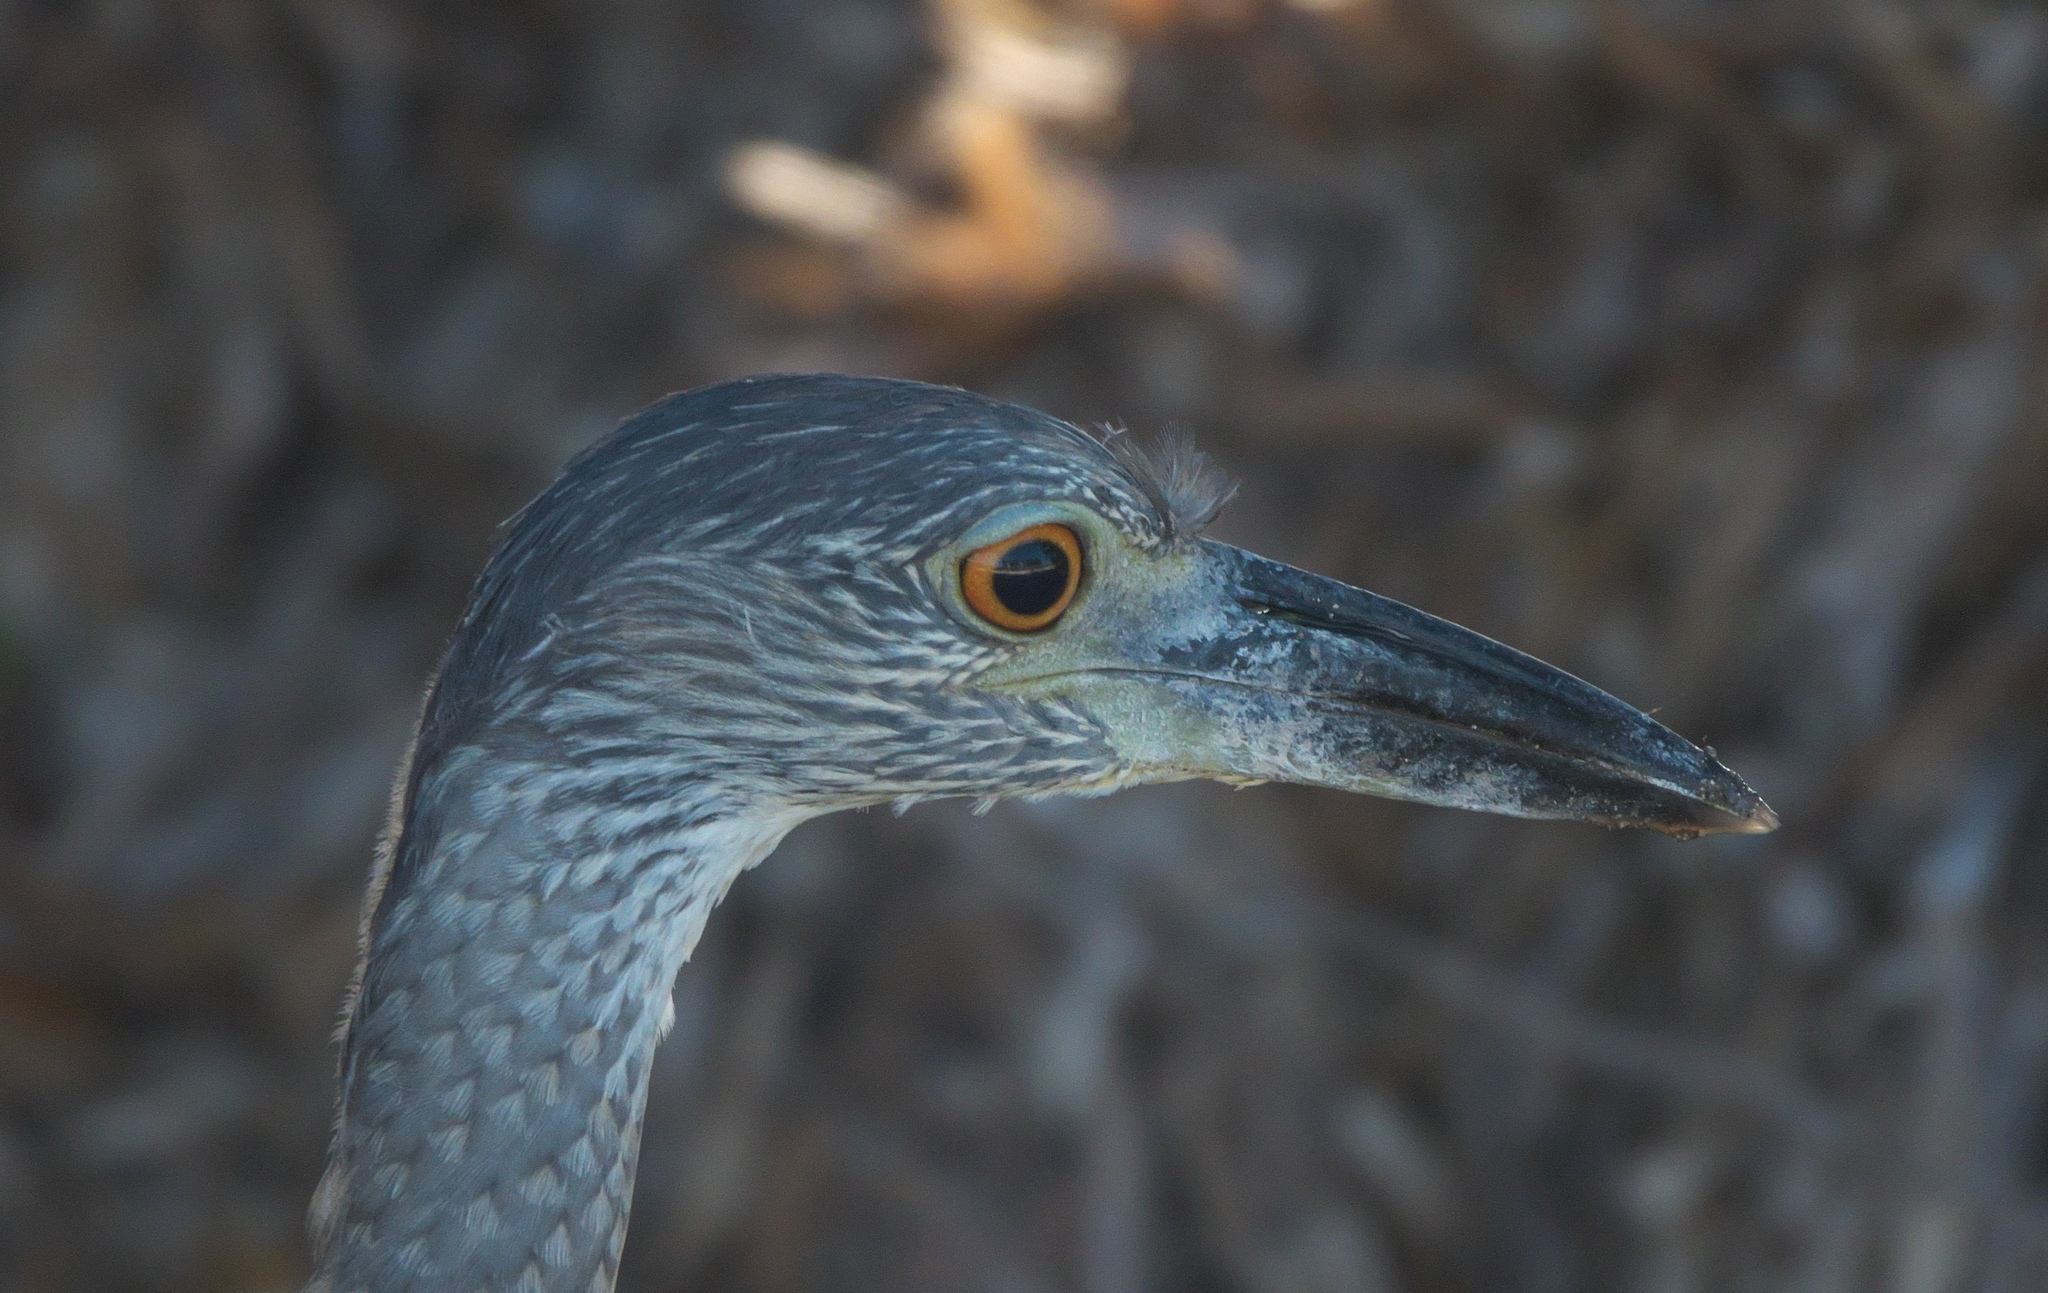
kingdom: Animalia
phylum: Chordata
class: Aves
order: Pelecaniformes
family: Ardeidae
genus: Nyctanassa
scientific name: Nyctanassa violacea
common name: Yellow-crowned night heron
